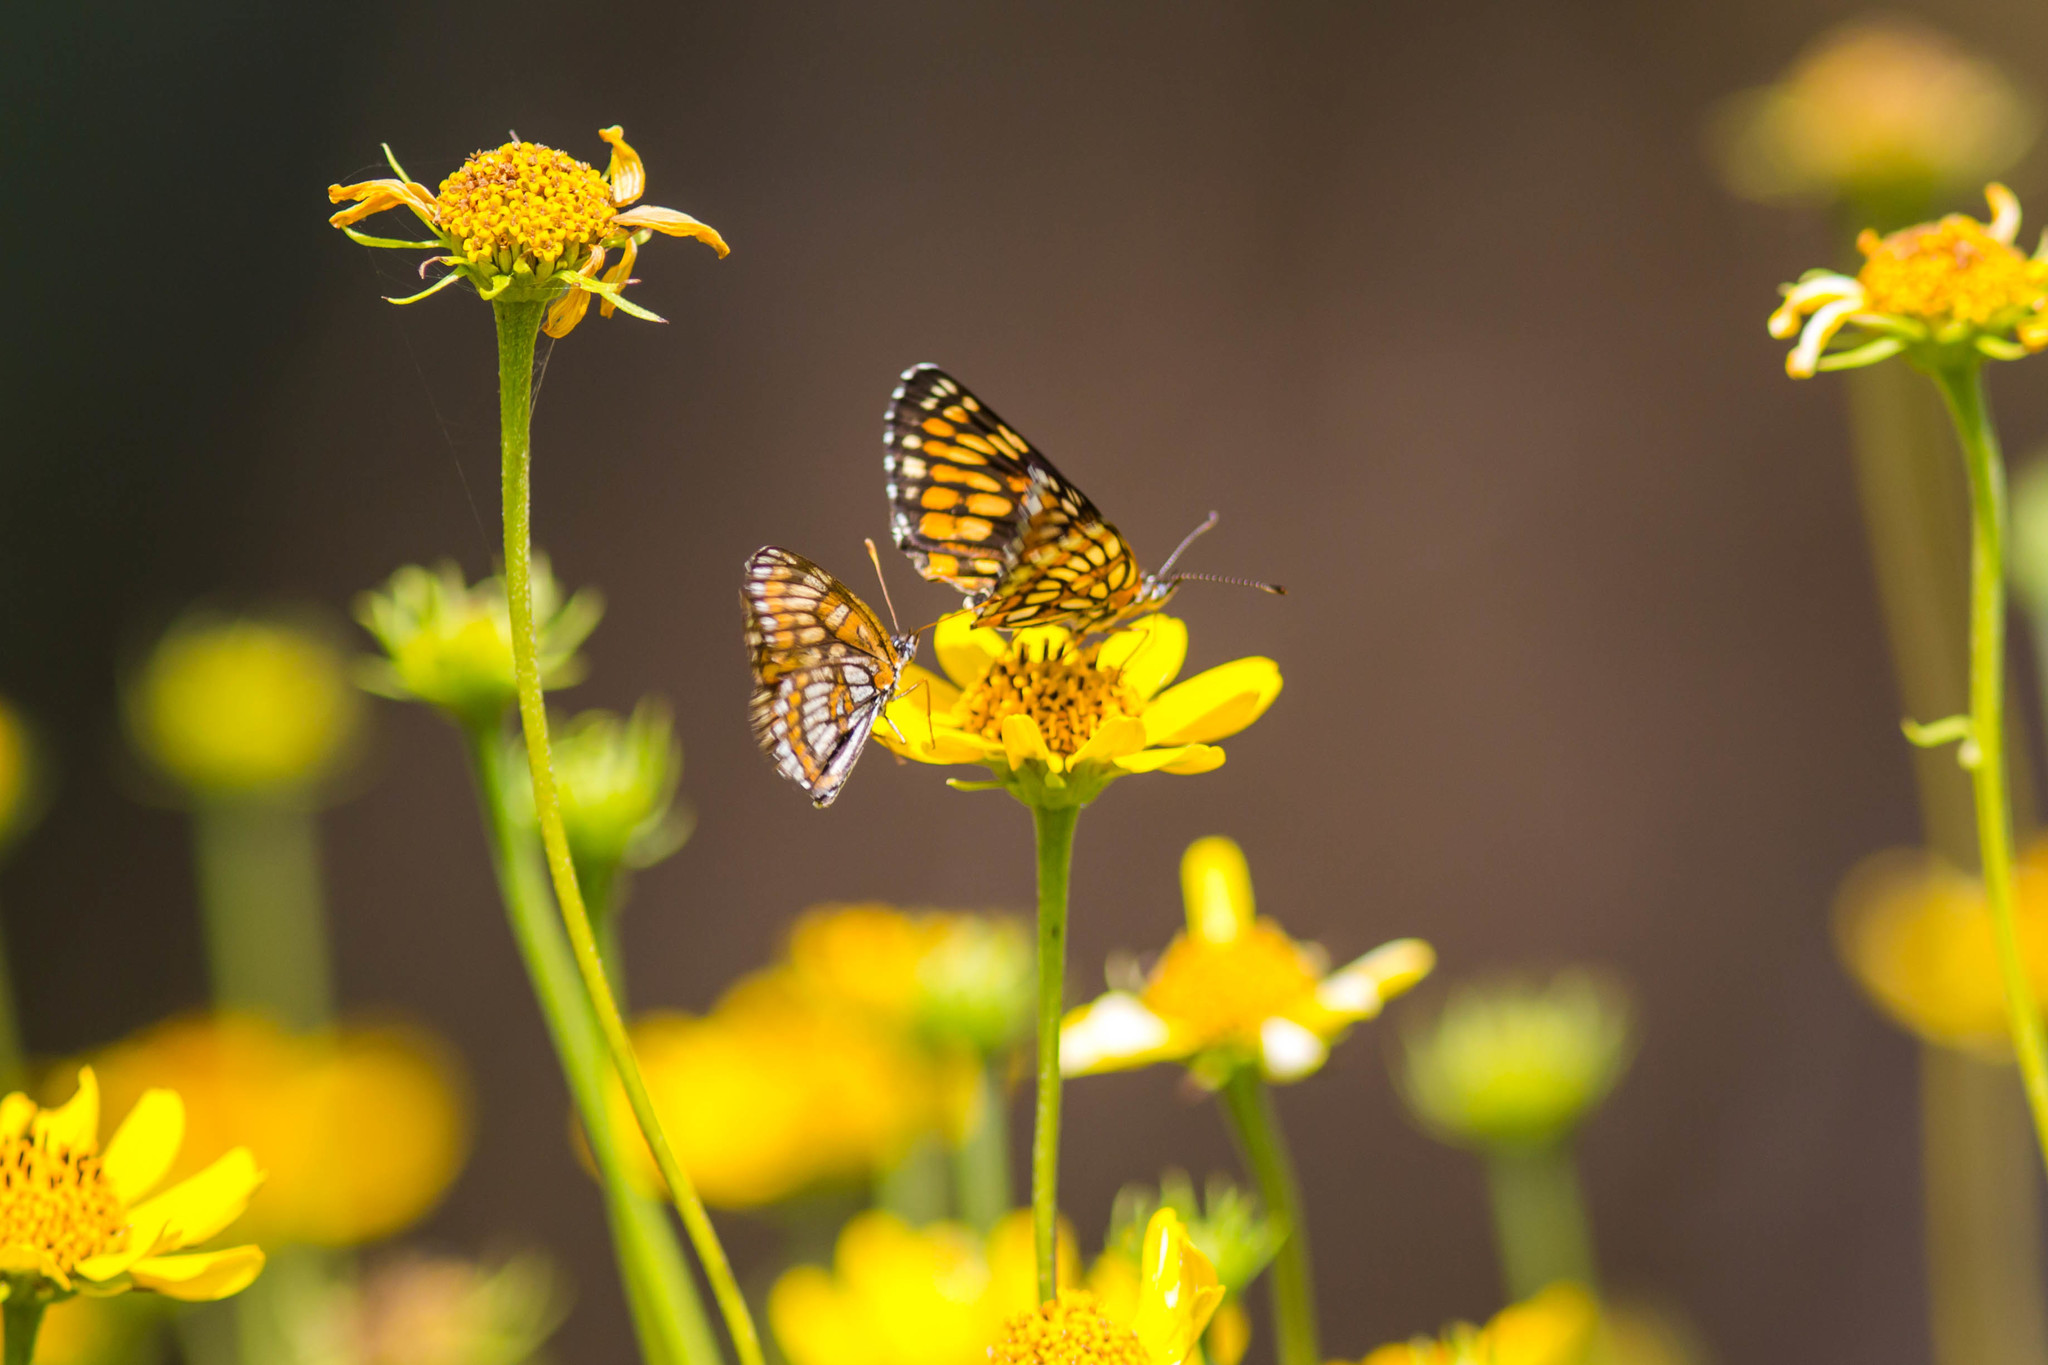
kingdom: Animalia
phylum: Arthropoda
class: Insecta
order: Lepidoptera
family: Nymphalidae
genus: Thessalia
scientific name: Thessalia theona
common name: Nymphalid moth
